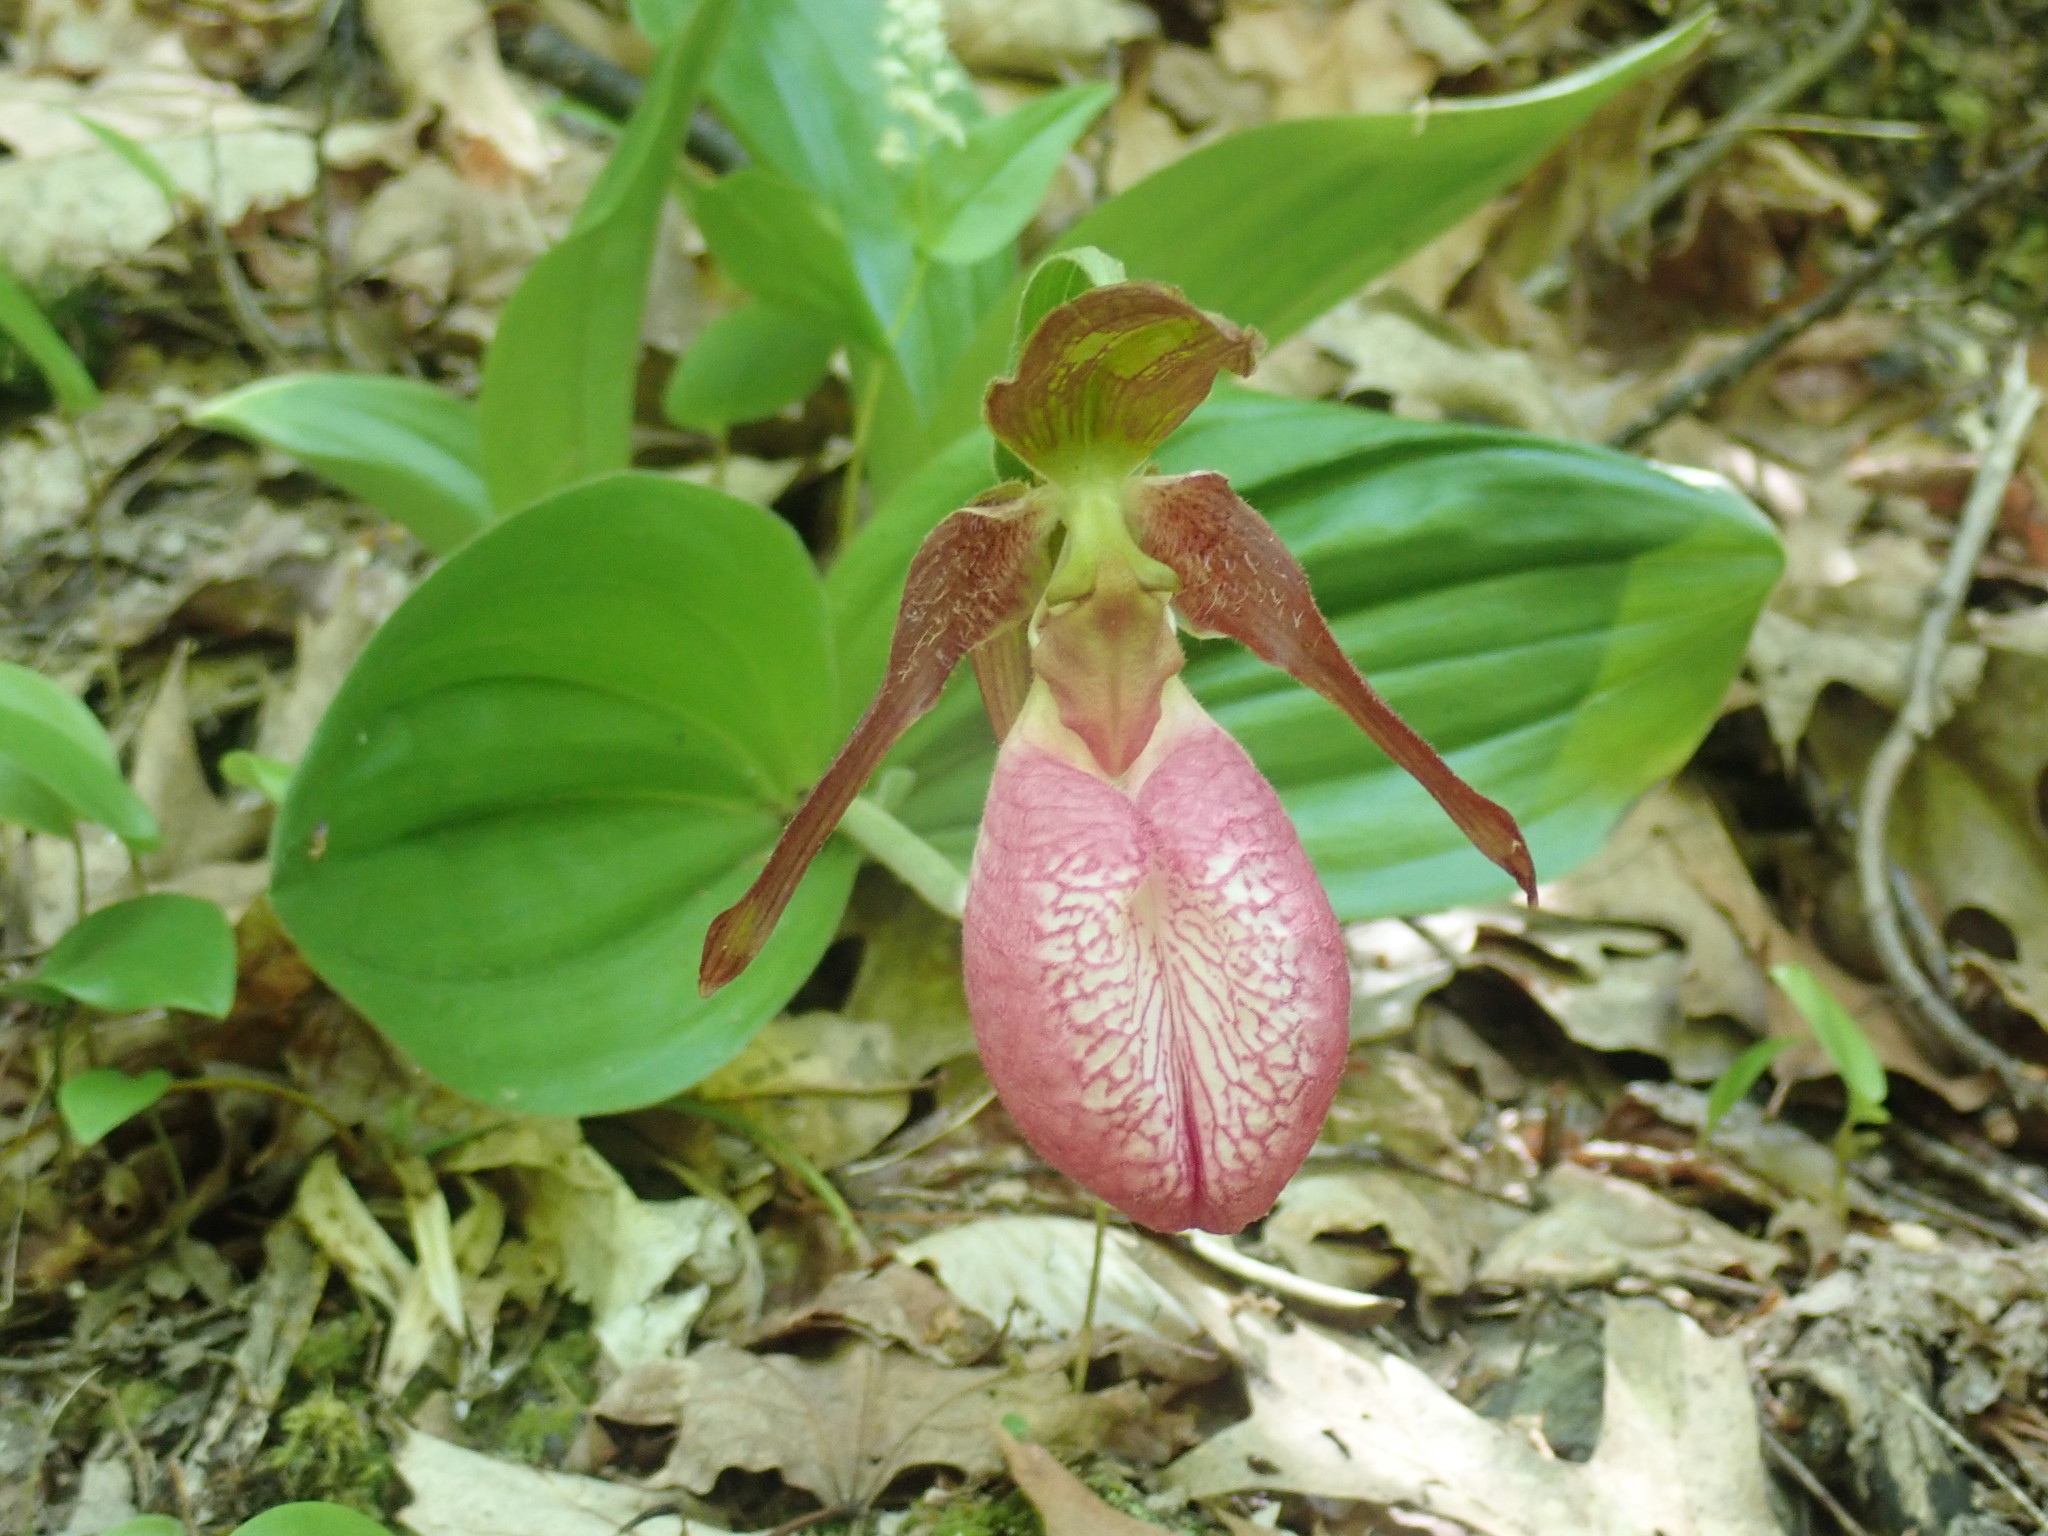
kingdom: Plantae
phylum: Tracheophyta
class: Liliopsida
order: Asparagales
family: Orchidaceae
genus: Cypripedium
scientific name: Cypripedium acaule
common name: Pink lady's-slipper
